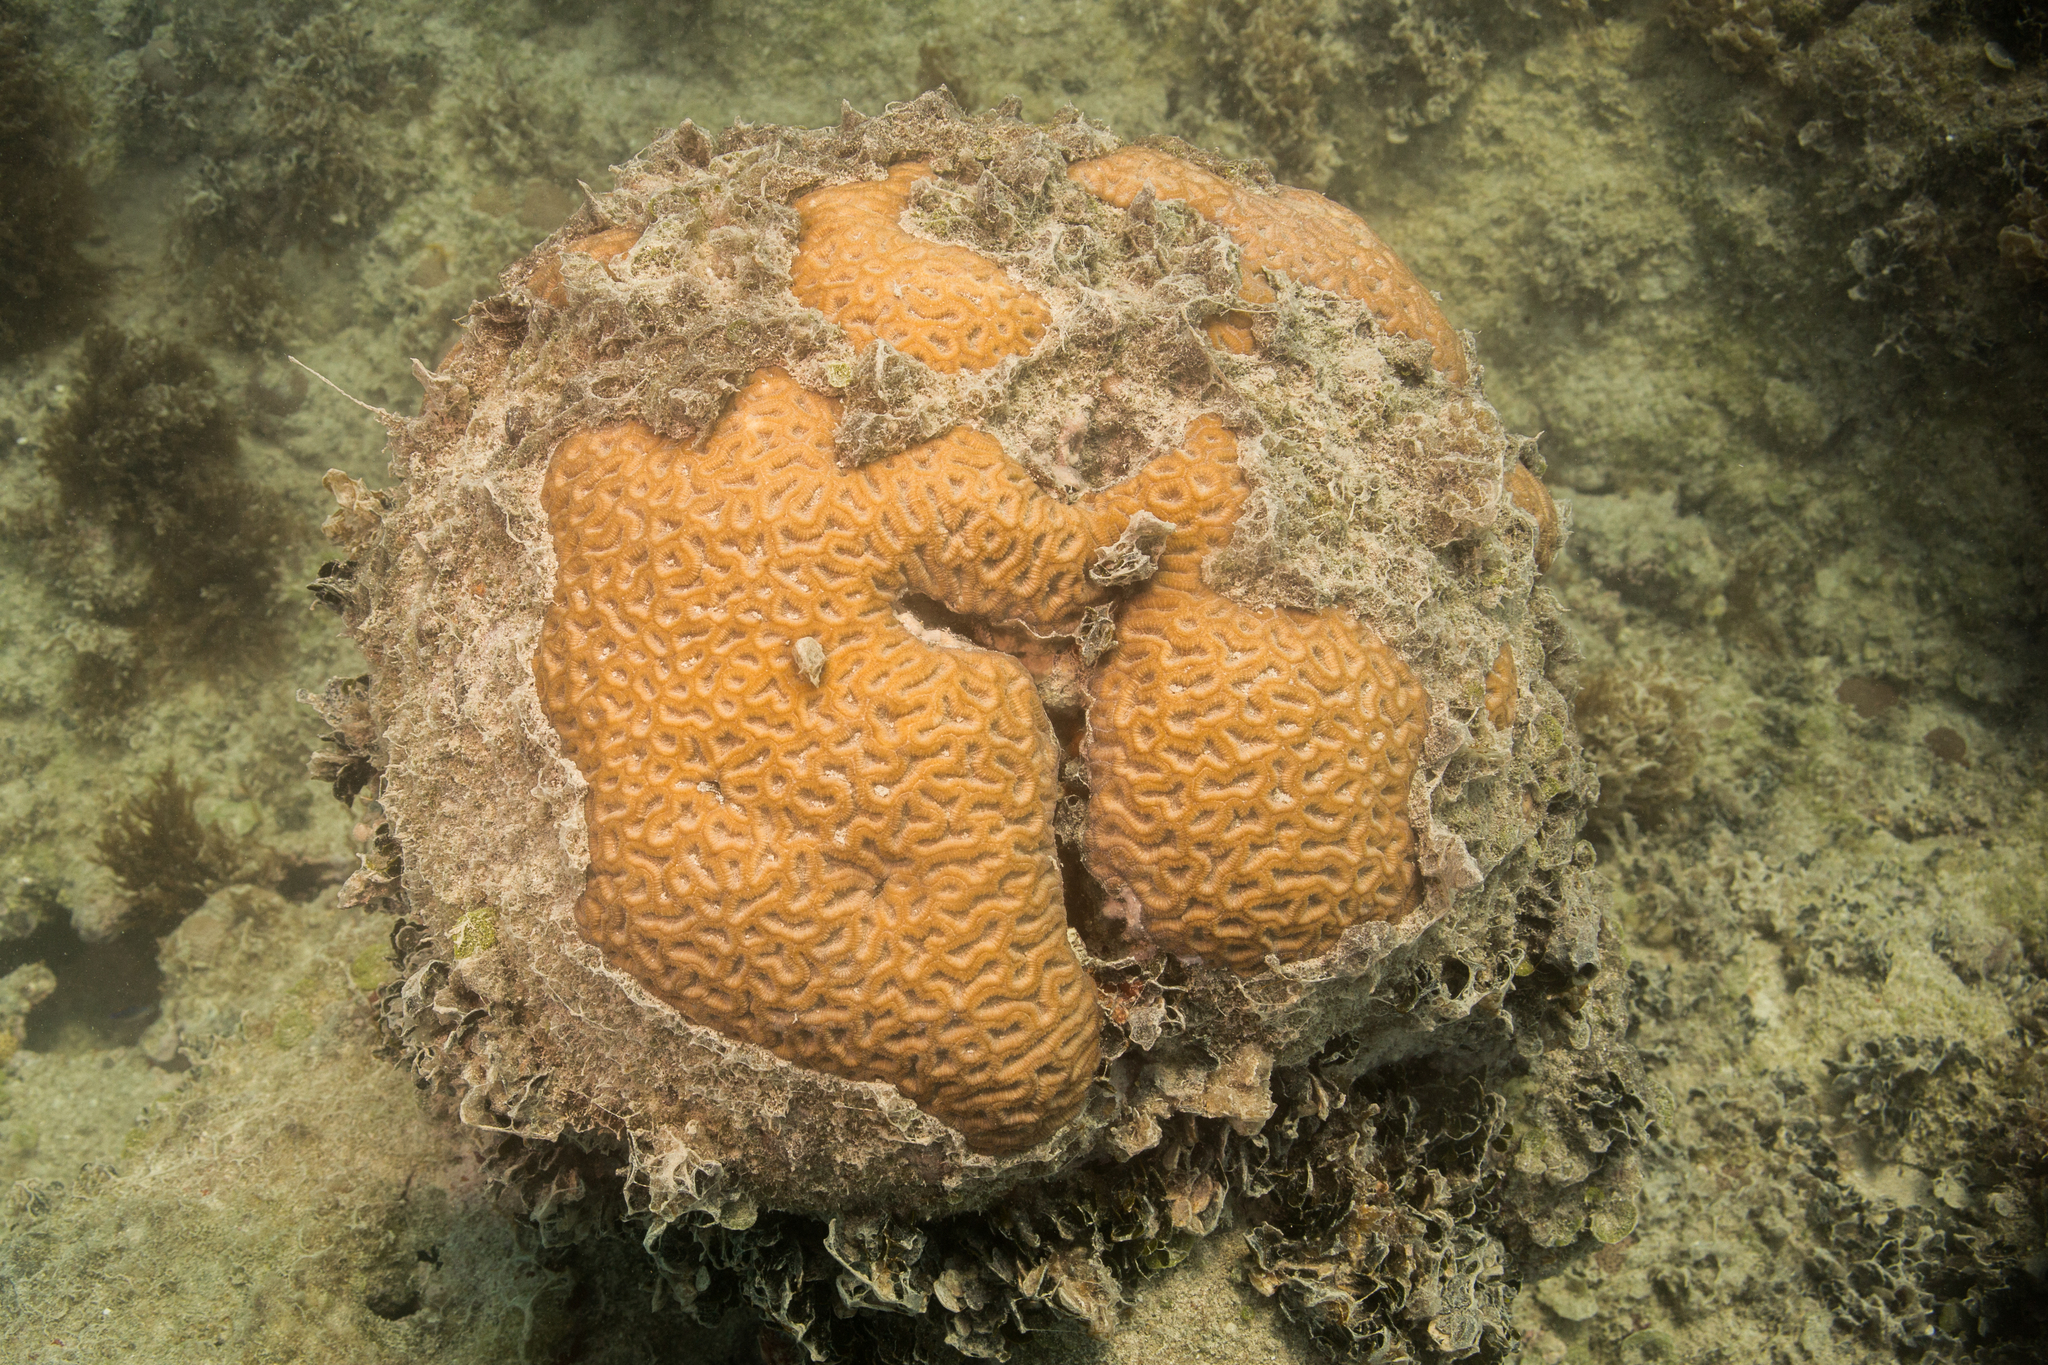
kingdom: Animalia
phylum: Cnidaria
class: Anthozoa
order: Scleractinia
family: Faviidae
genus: Mussismilia
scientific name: Mussismilia hispida
